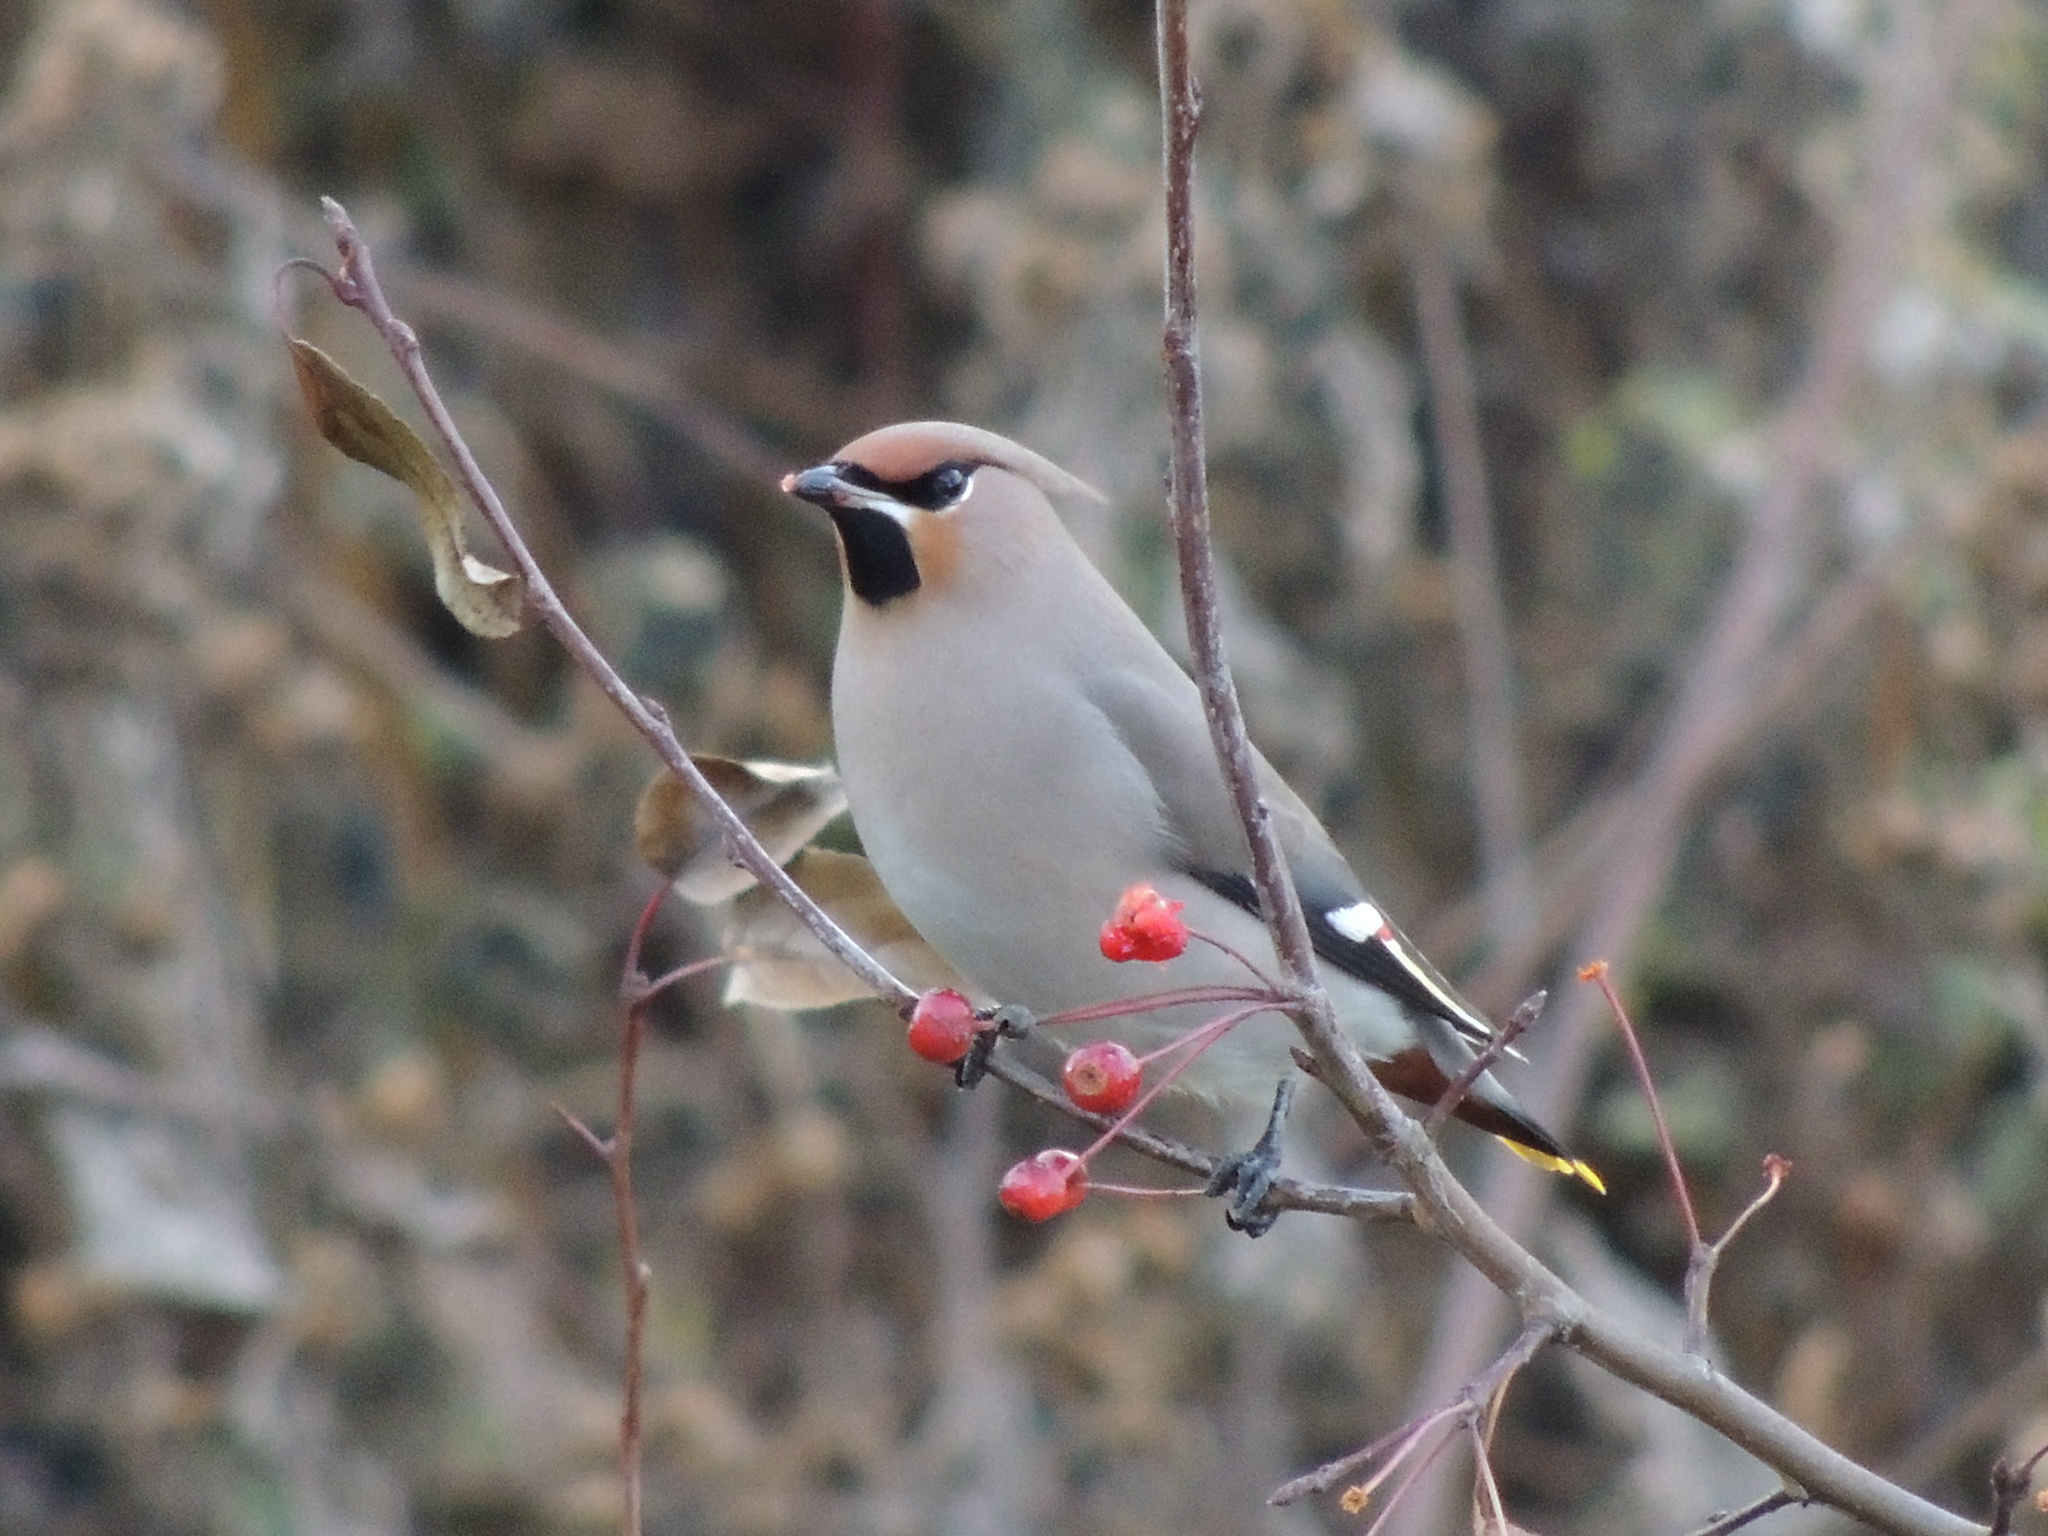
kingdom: Animalia
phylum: Chordata
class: Aves
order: Passeriformes
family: Bombycillidae
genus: Bombycilla
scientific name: Bombycilla garrulus
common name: Bohemian waxwing
